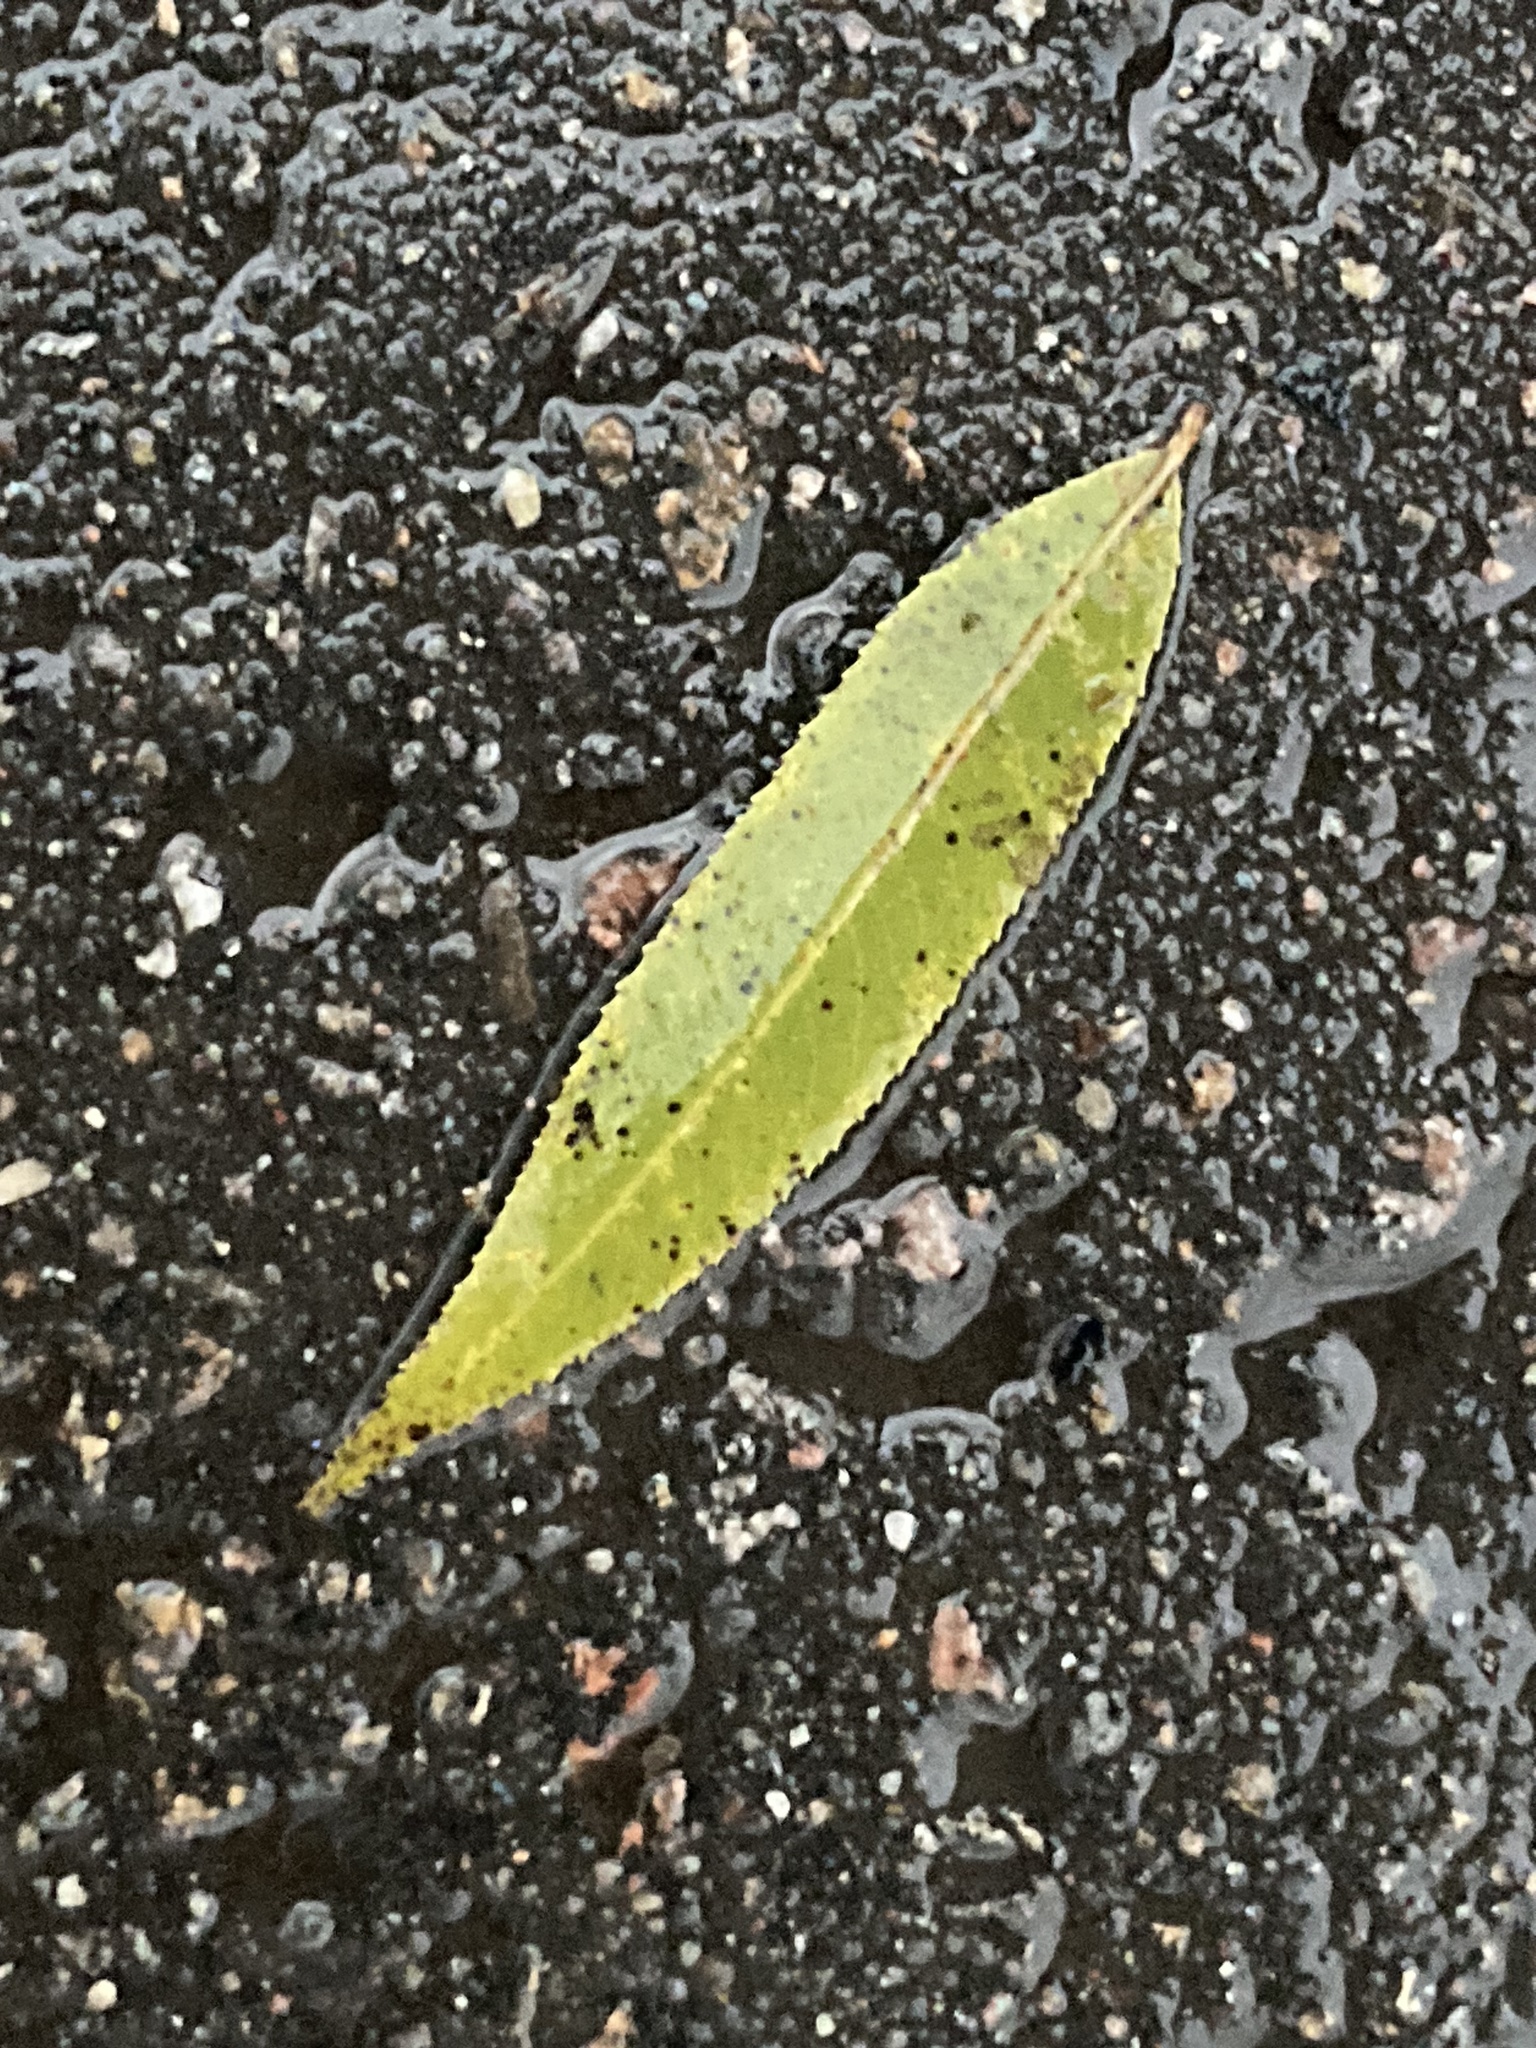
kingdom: Plantae
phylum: Tracheophyta
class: Magnoliopsida
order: Malpighiales
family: Salicaceae
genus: Salix
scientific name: Salix
